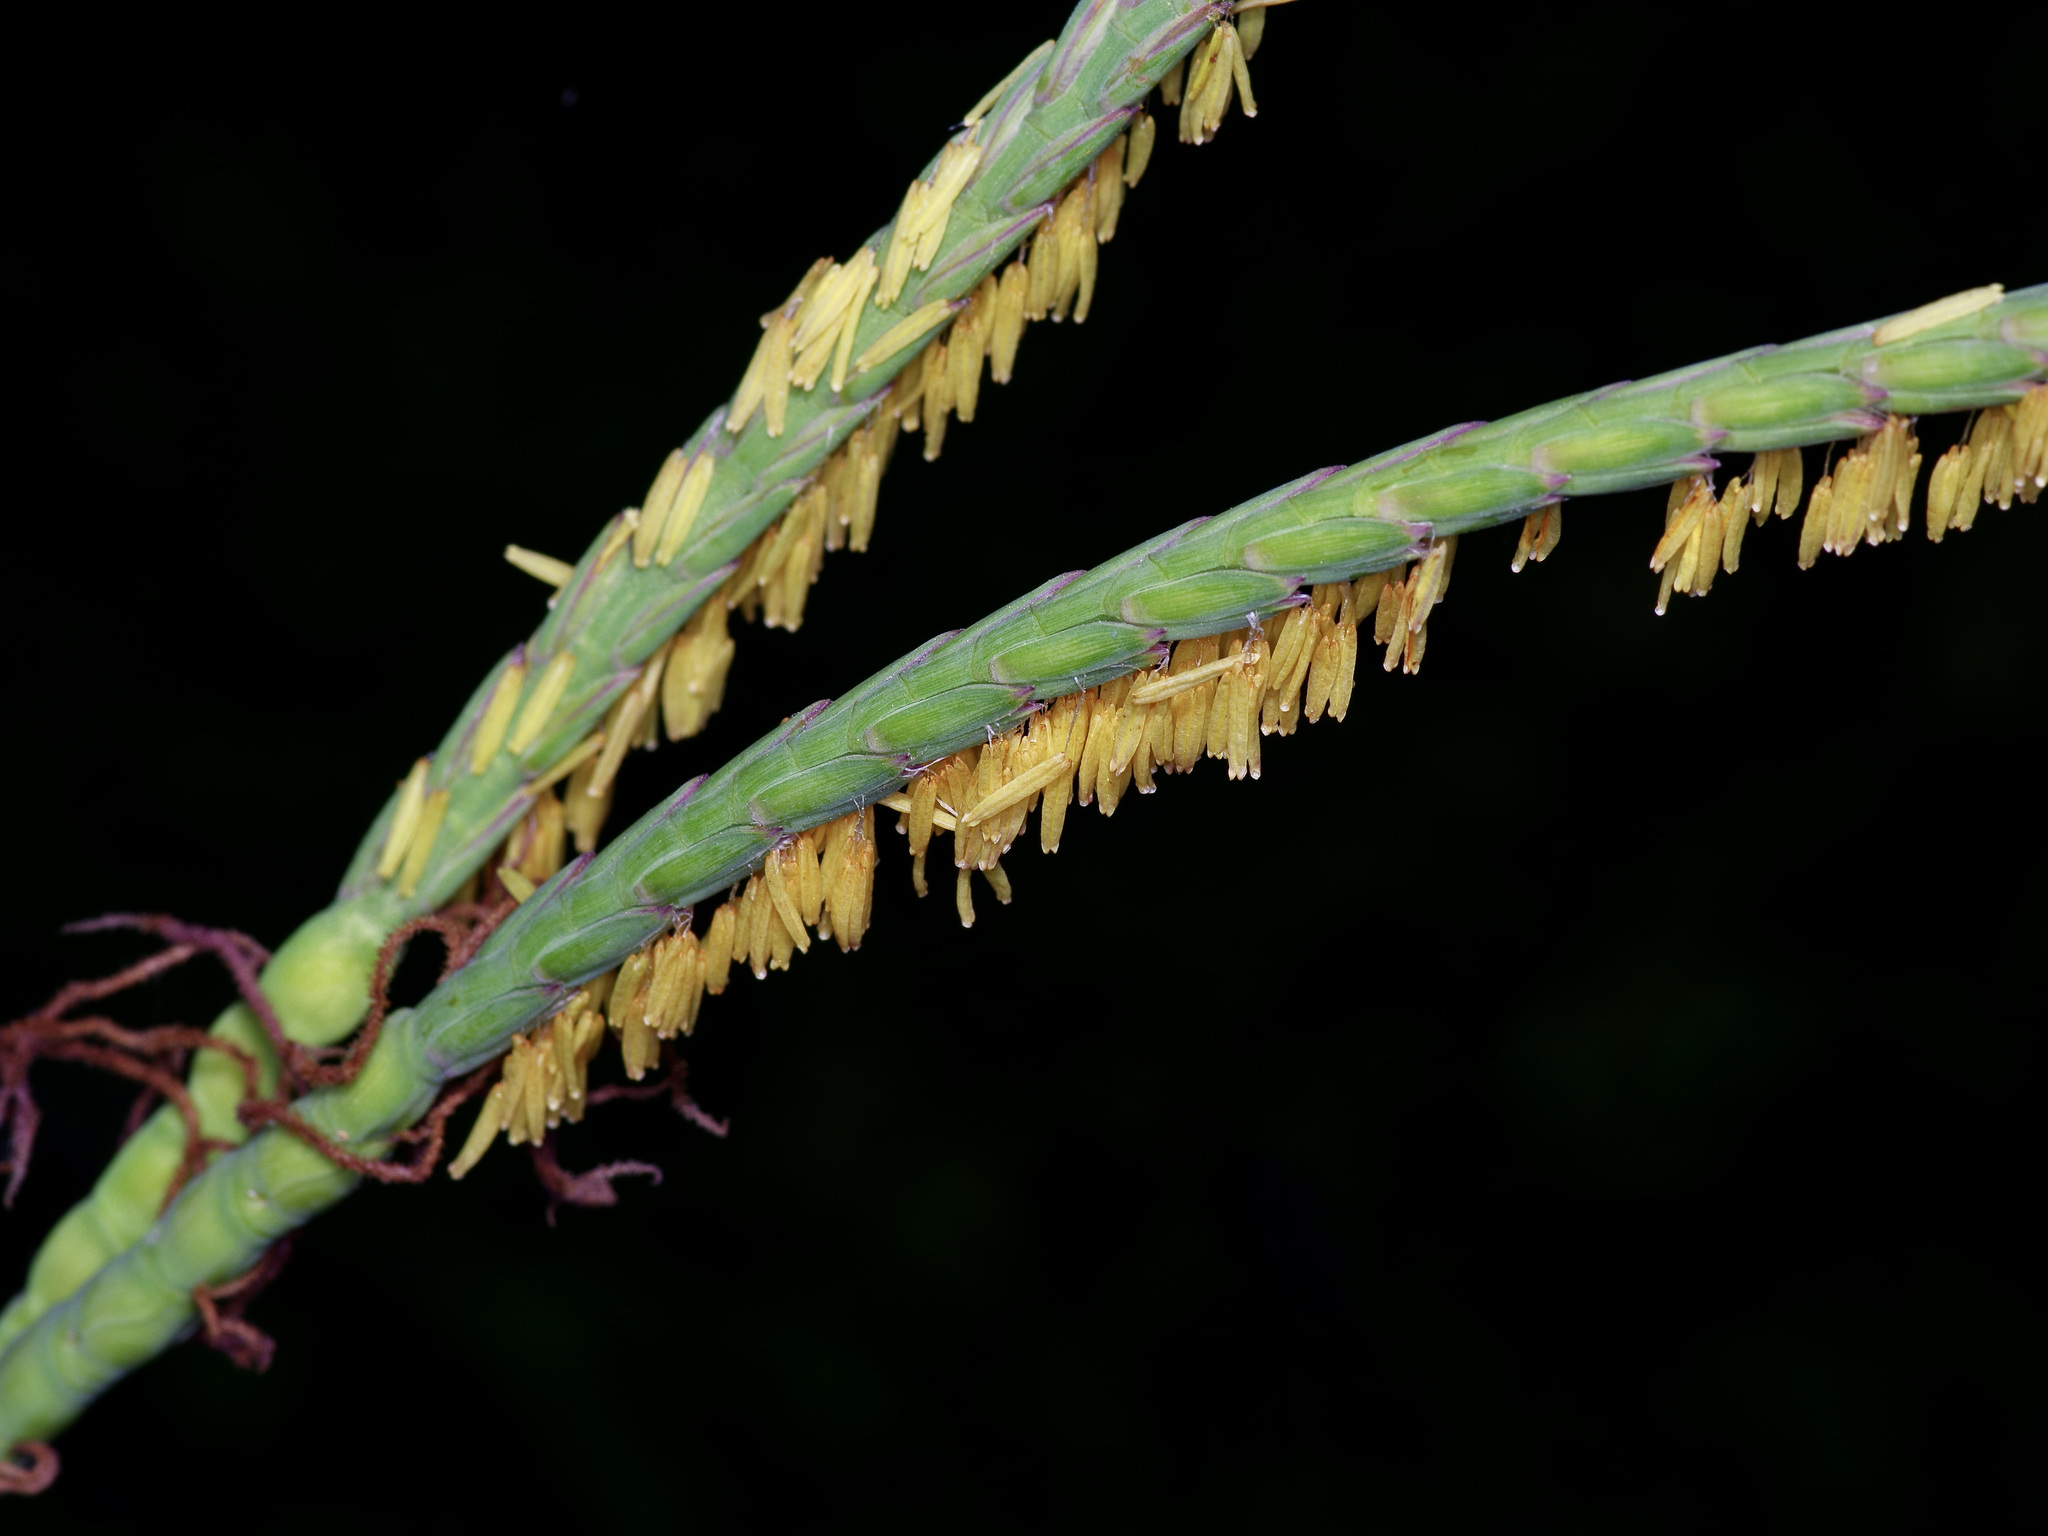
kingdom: Plantae
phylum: Tracheophyta
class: Liliopsida
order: Poales
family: Poaceae
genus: Tripsacum
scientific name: Tripsacum dactyloides
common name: Buffalo-grass
